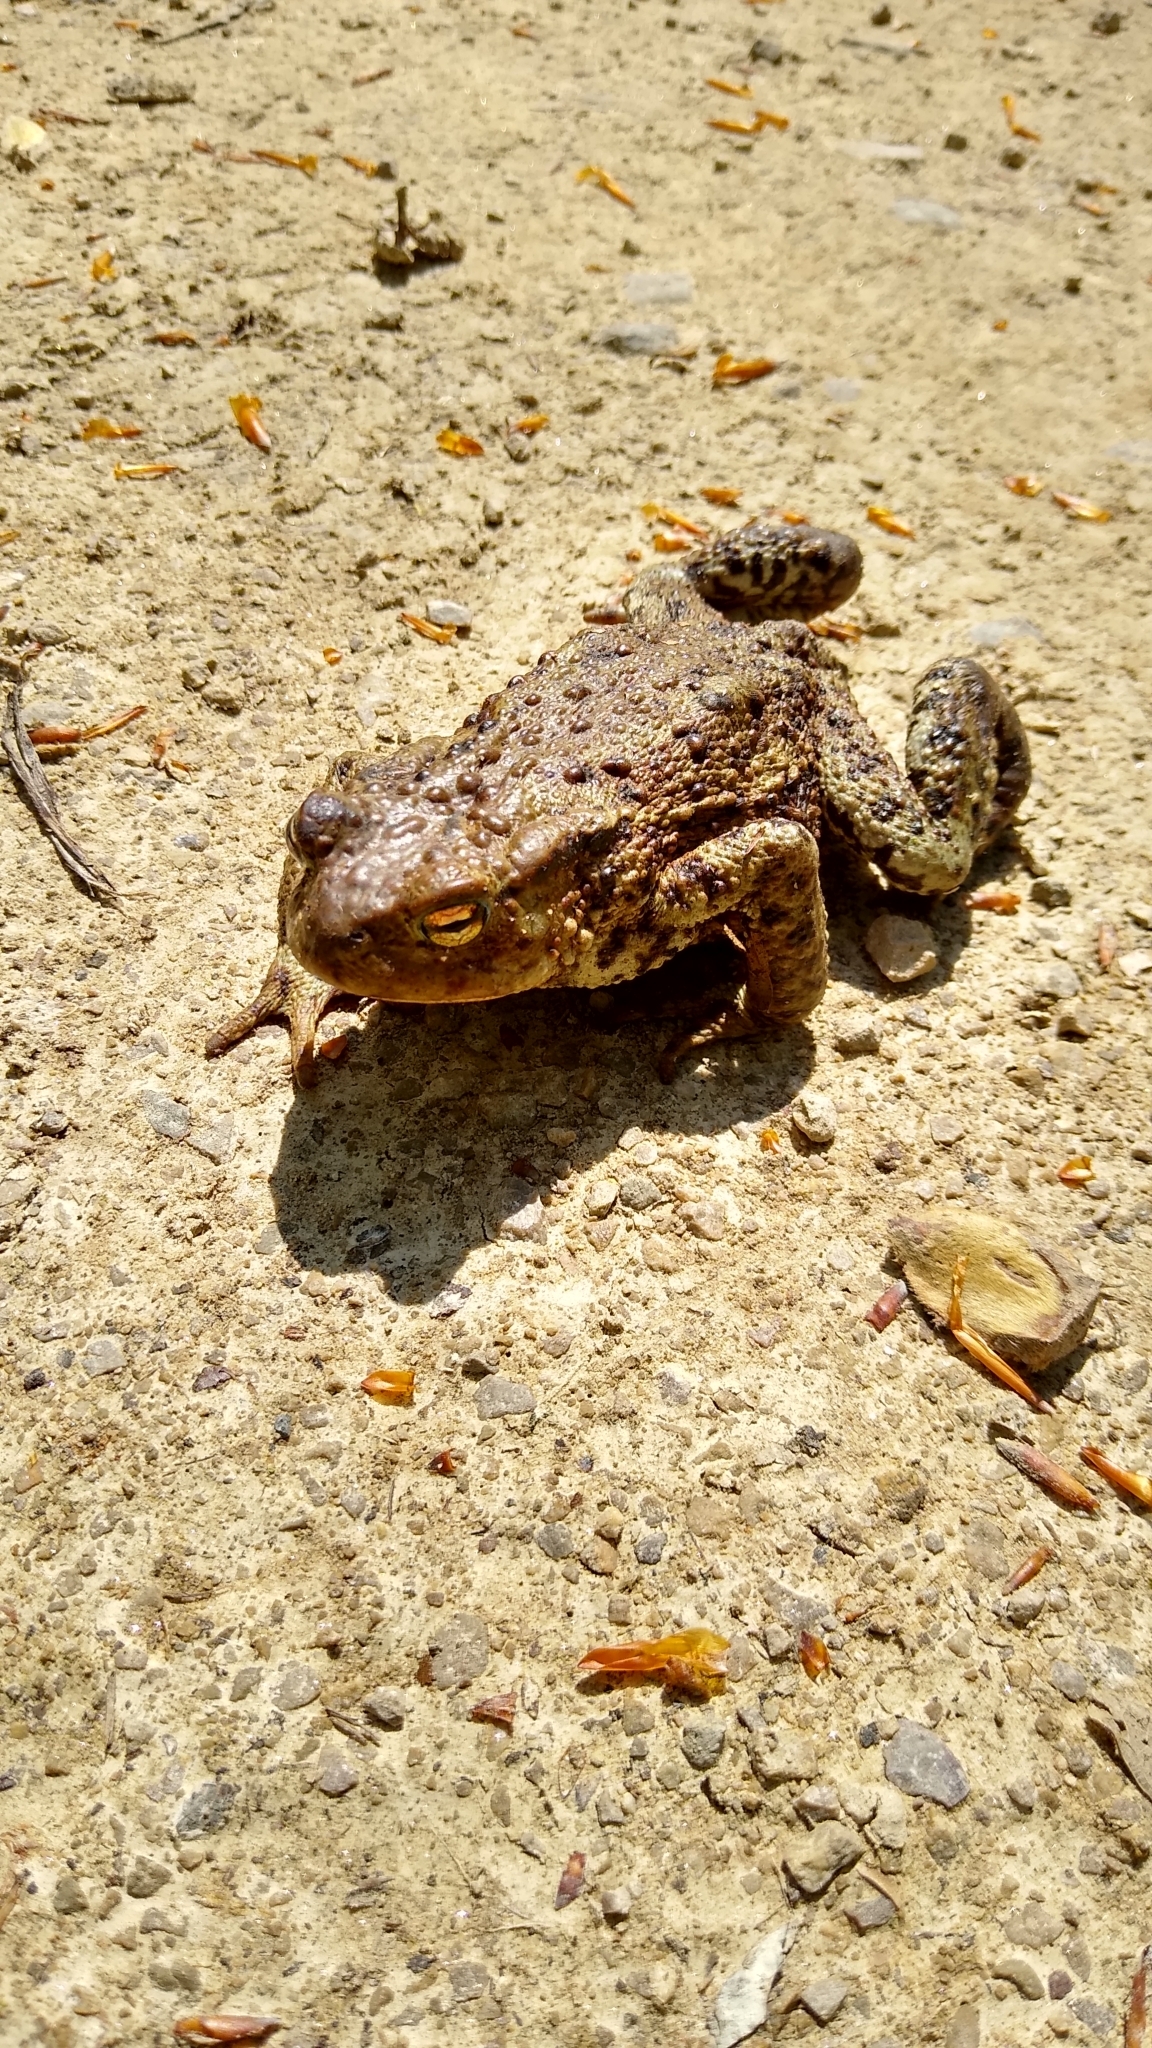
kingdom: Animalia
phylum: Chordata
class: Amphibia
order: Anura
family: Bufonidae
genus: Bufo
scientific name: Bufo bufo
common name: Common toad
